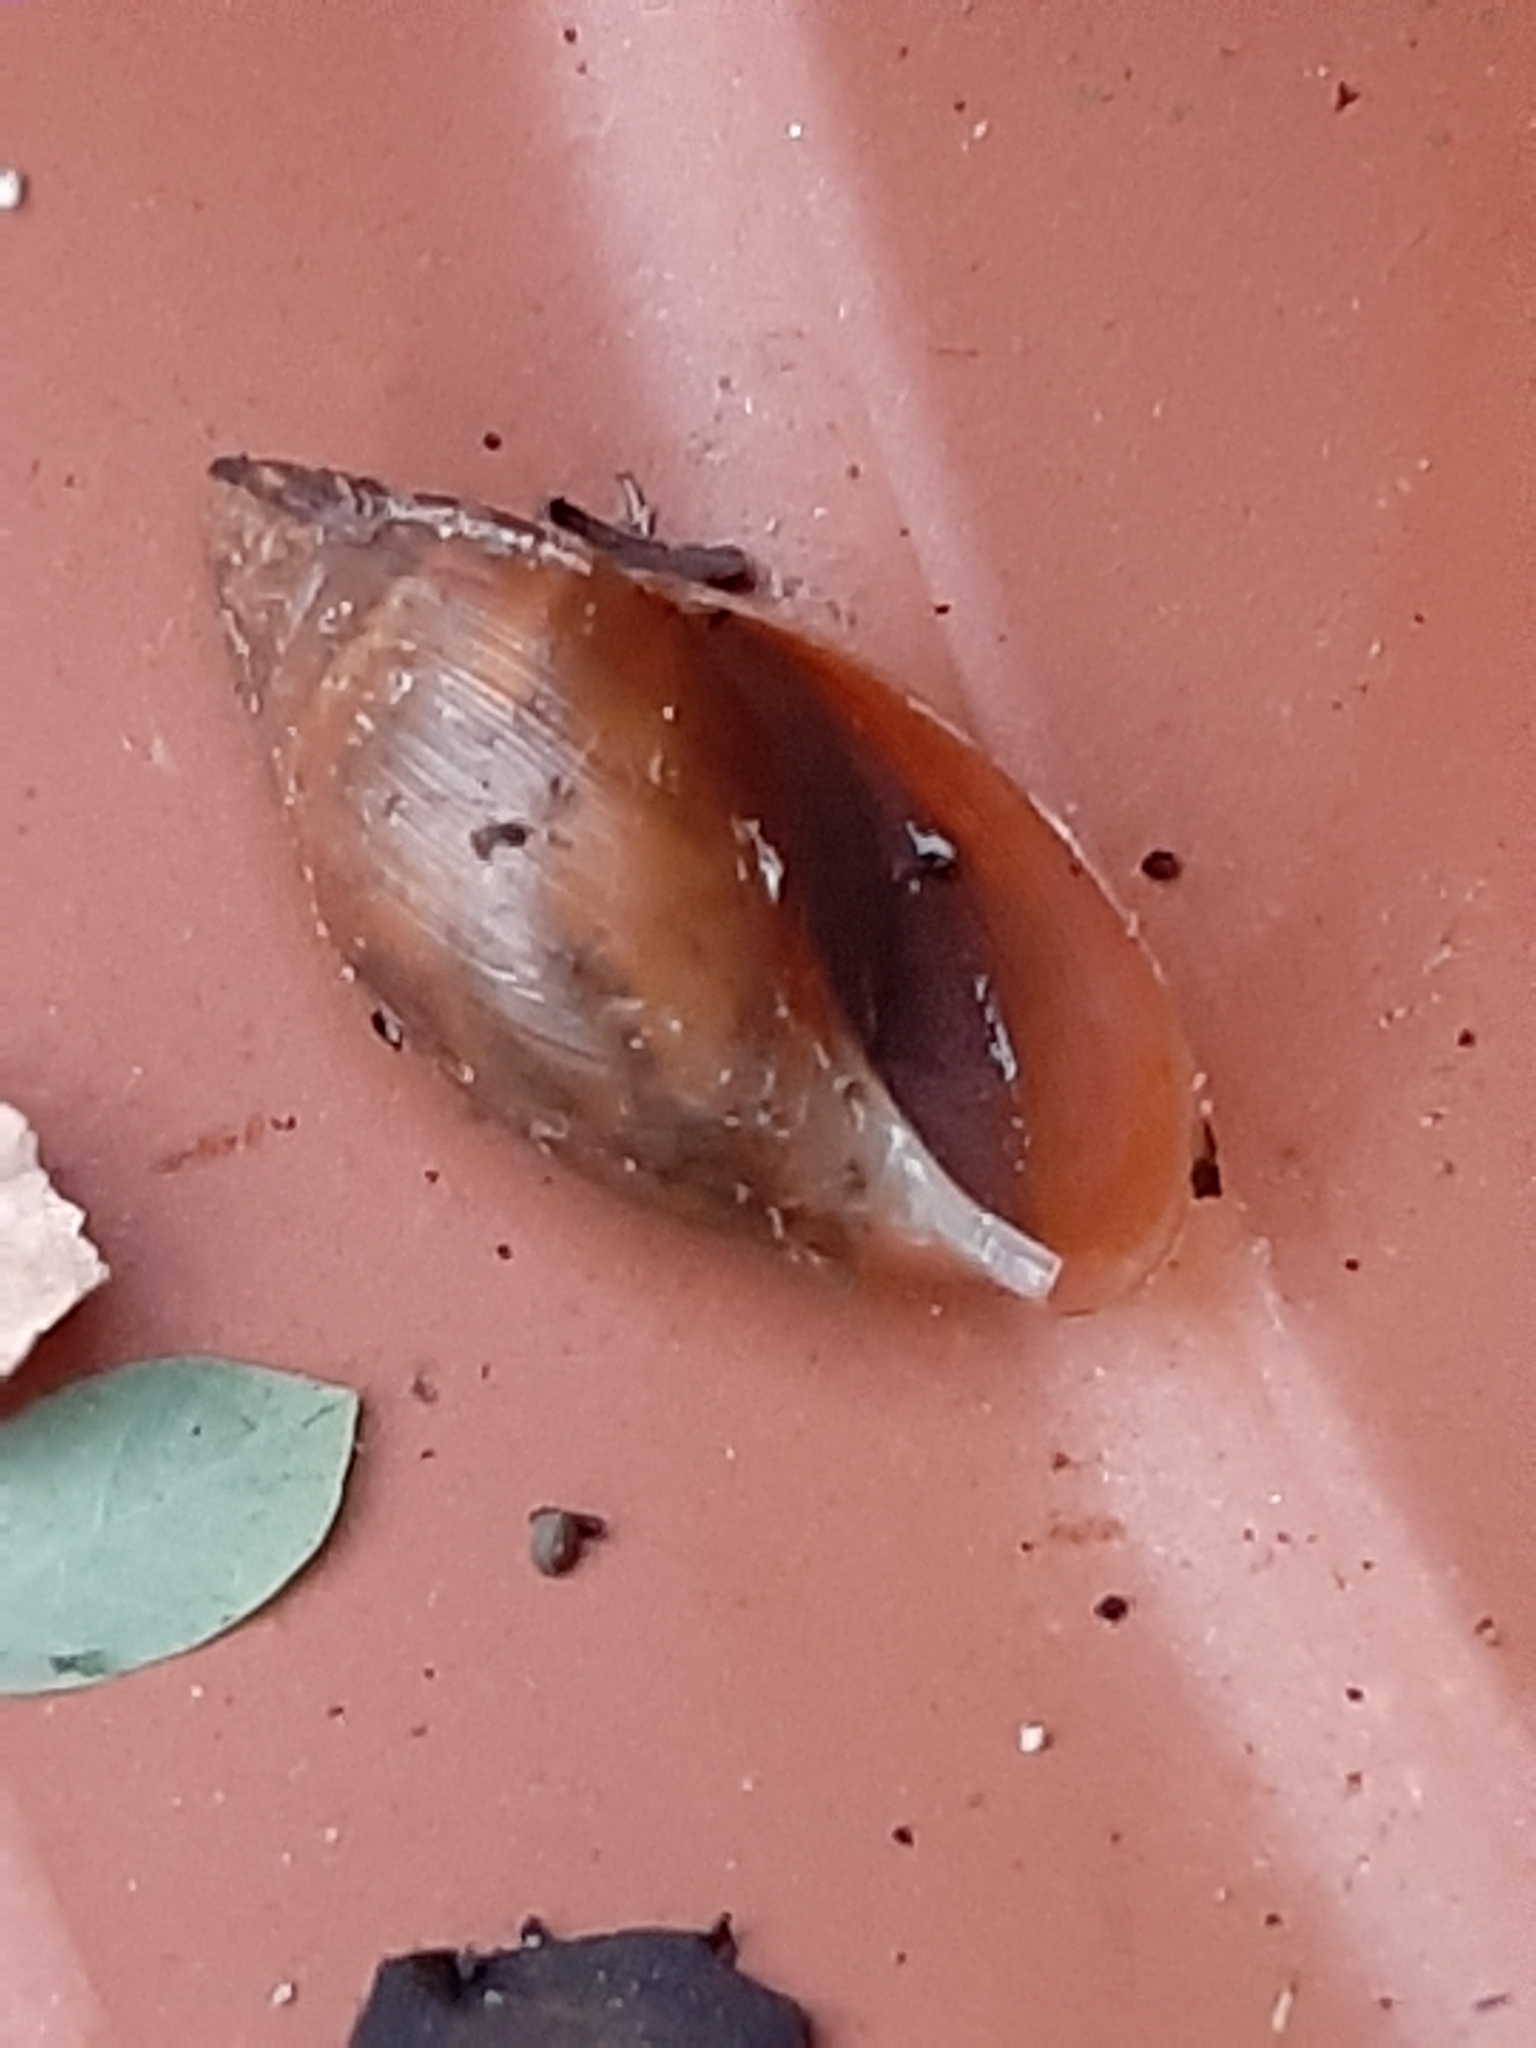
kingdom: Animalia
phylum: Mollusca
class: Gastropoda
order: Stylommatophora
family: Spiraxidae
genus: Euglandina
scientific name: Euglandina rosea
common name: Rosy wolfsnail
